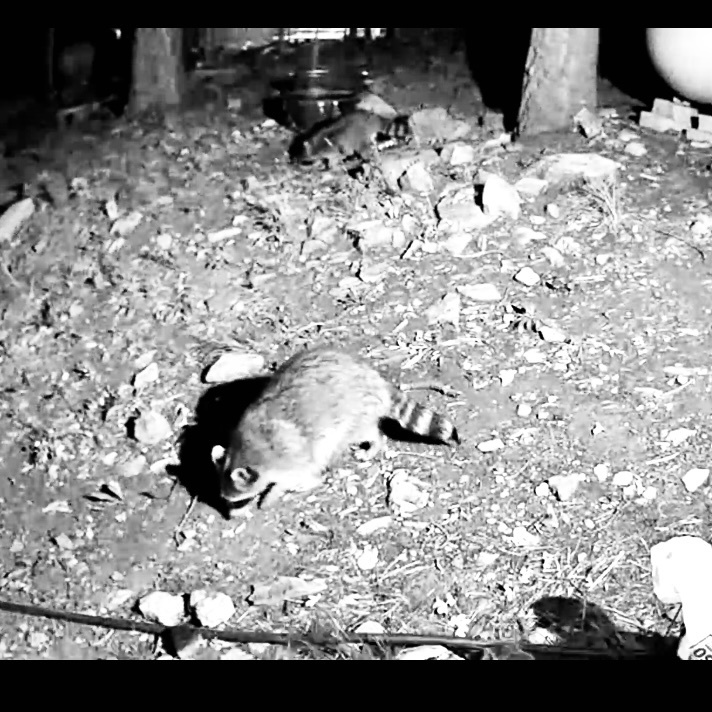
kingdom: Animalia
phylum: Chordata
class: Mammalia
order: Carnivora
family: Procyonidae
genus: Procyon
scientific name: Procyon lotor
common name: Raccoon
